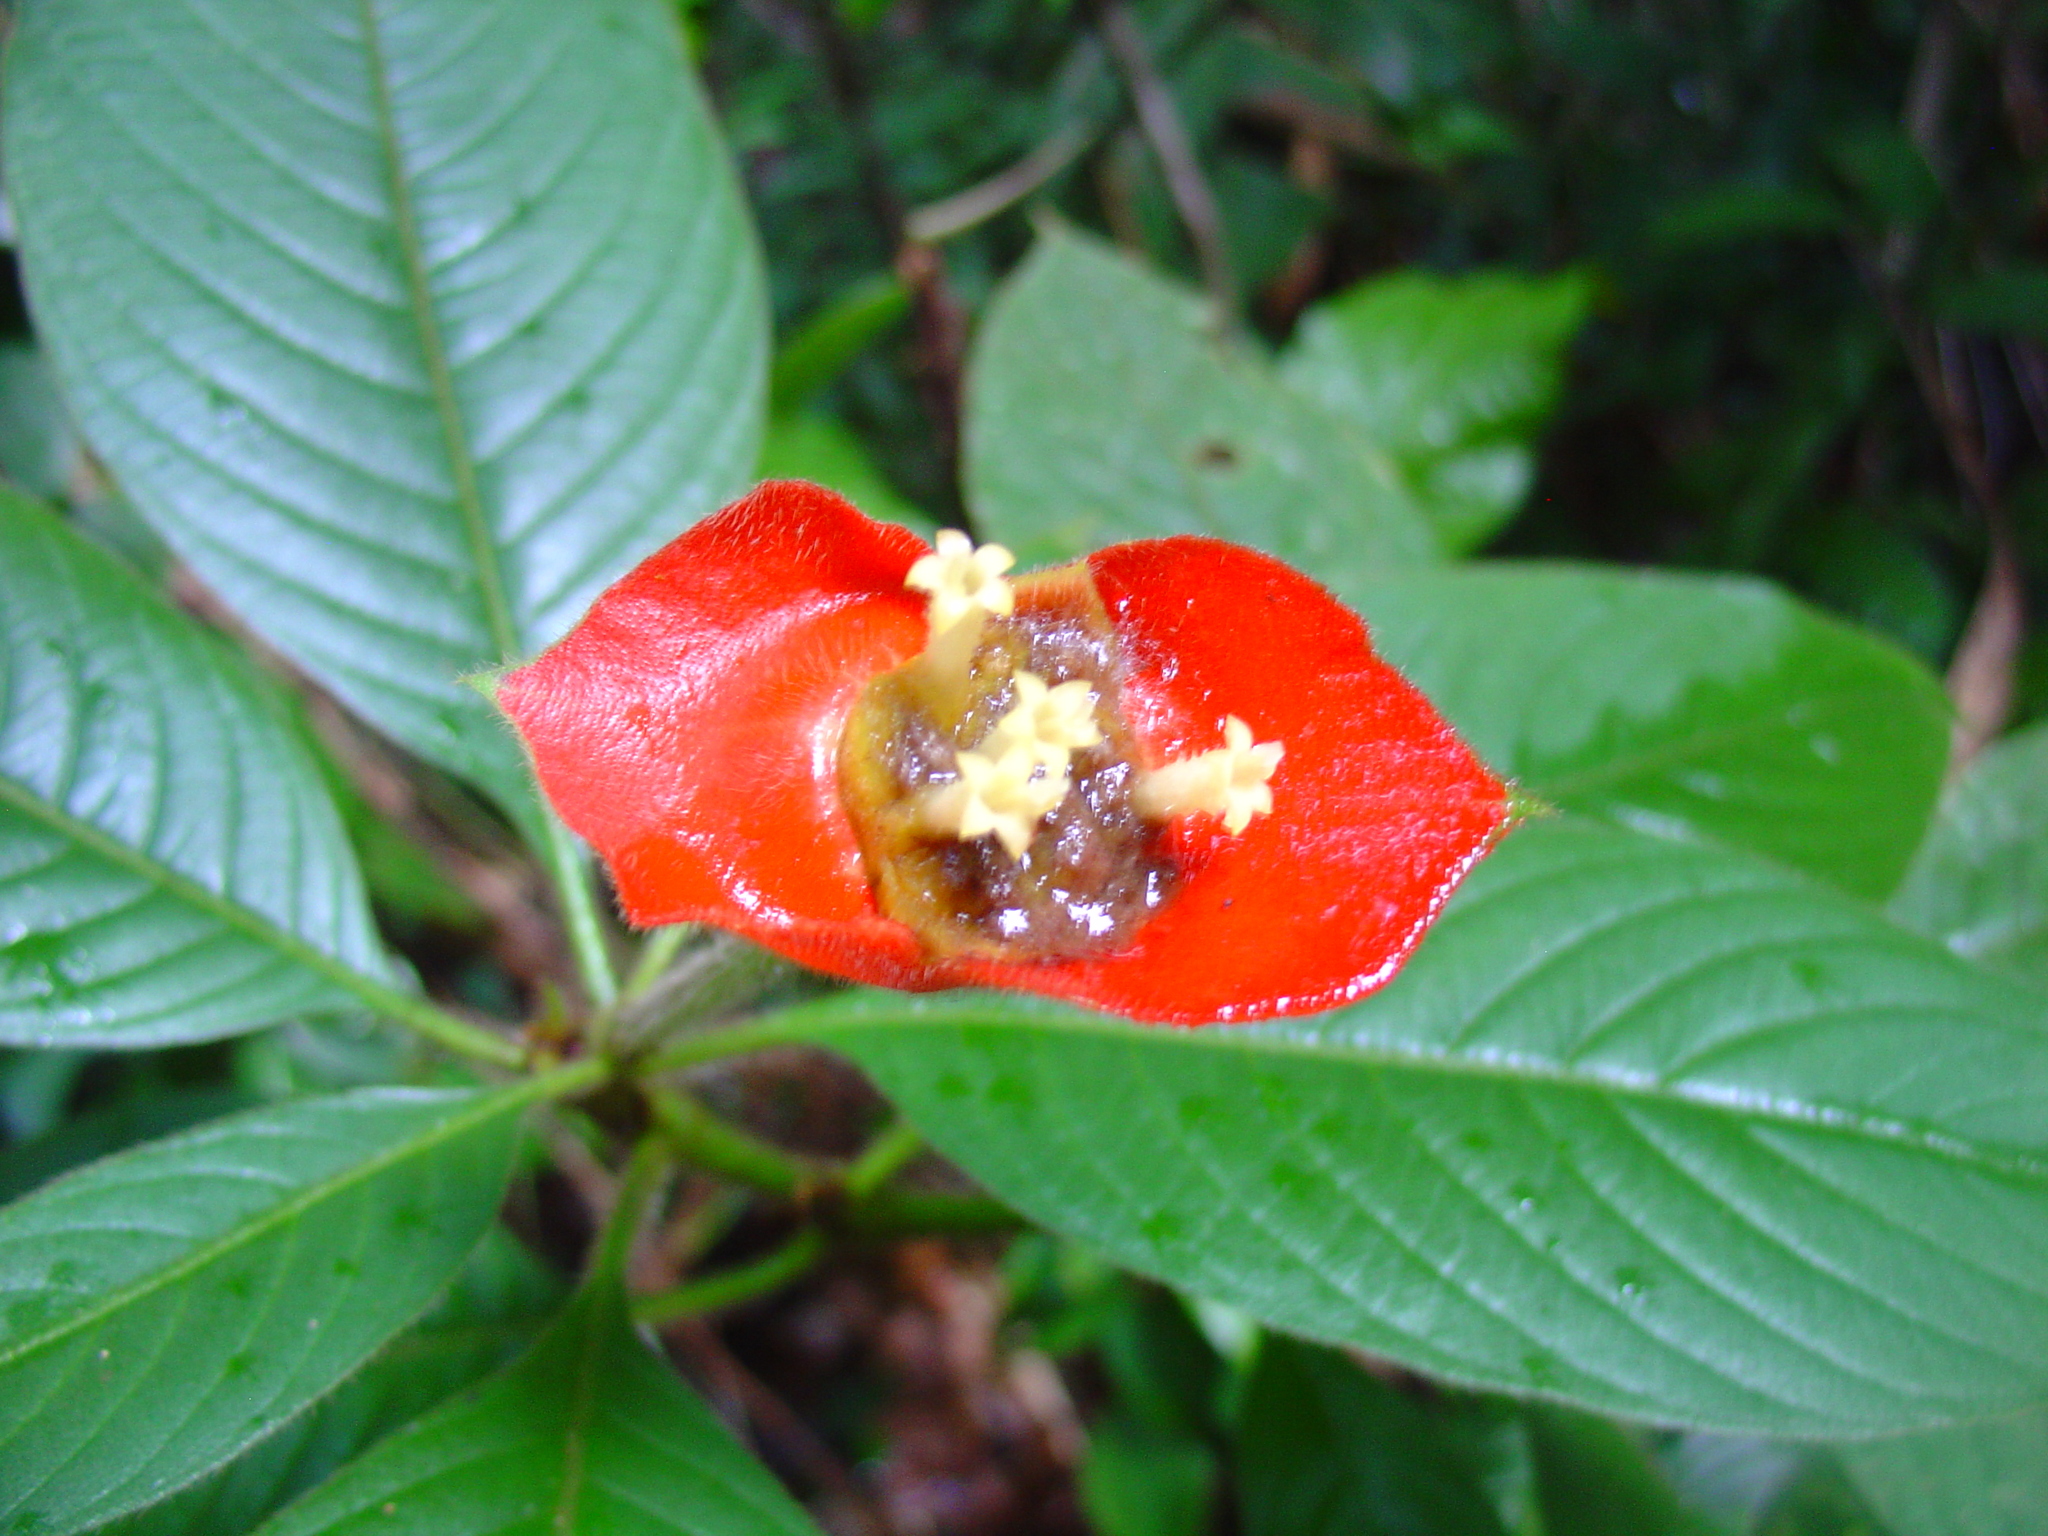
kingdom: Plantae
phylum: Tracheophyta
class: Magnoliopsida
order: Gentianales
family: Rubiaceae
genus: Palicourea
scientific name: Palicourea tomentosa
